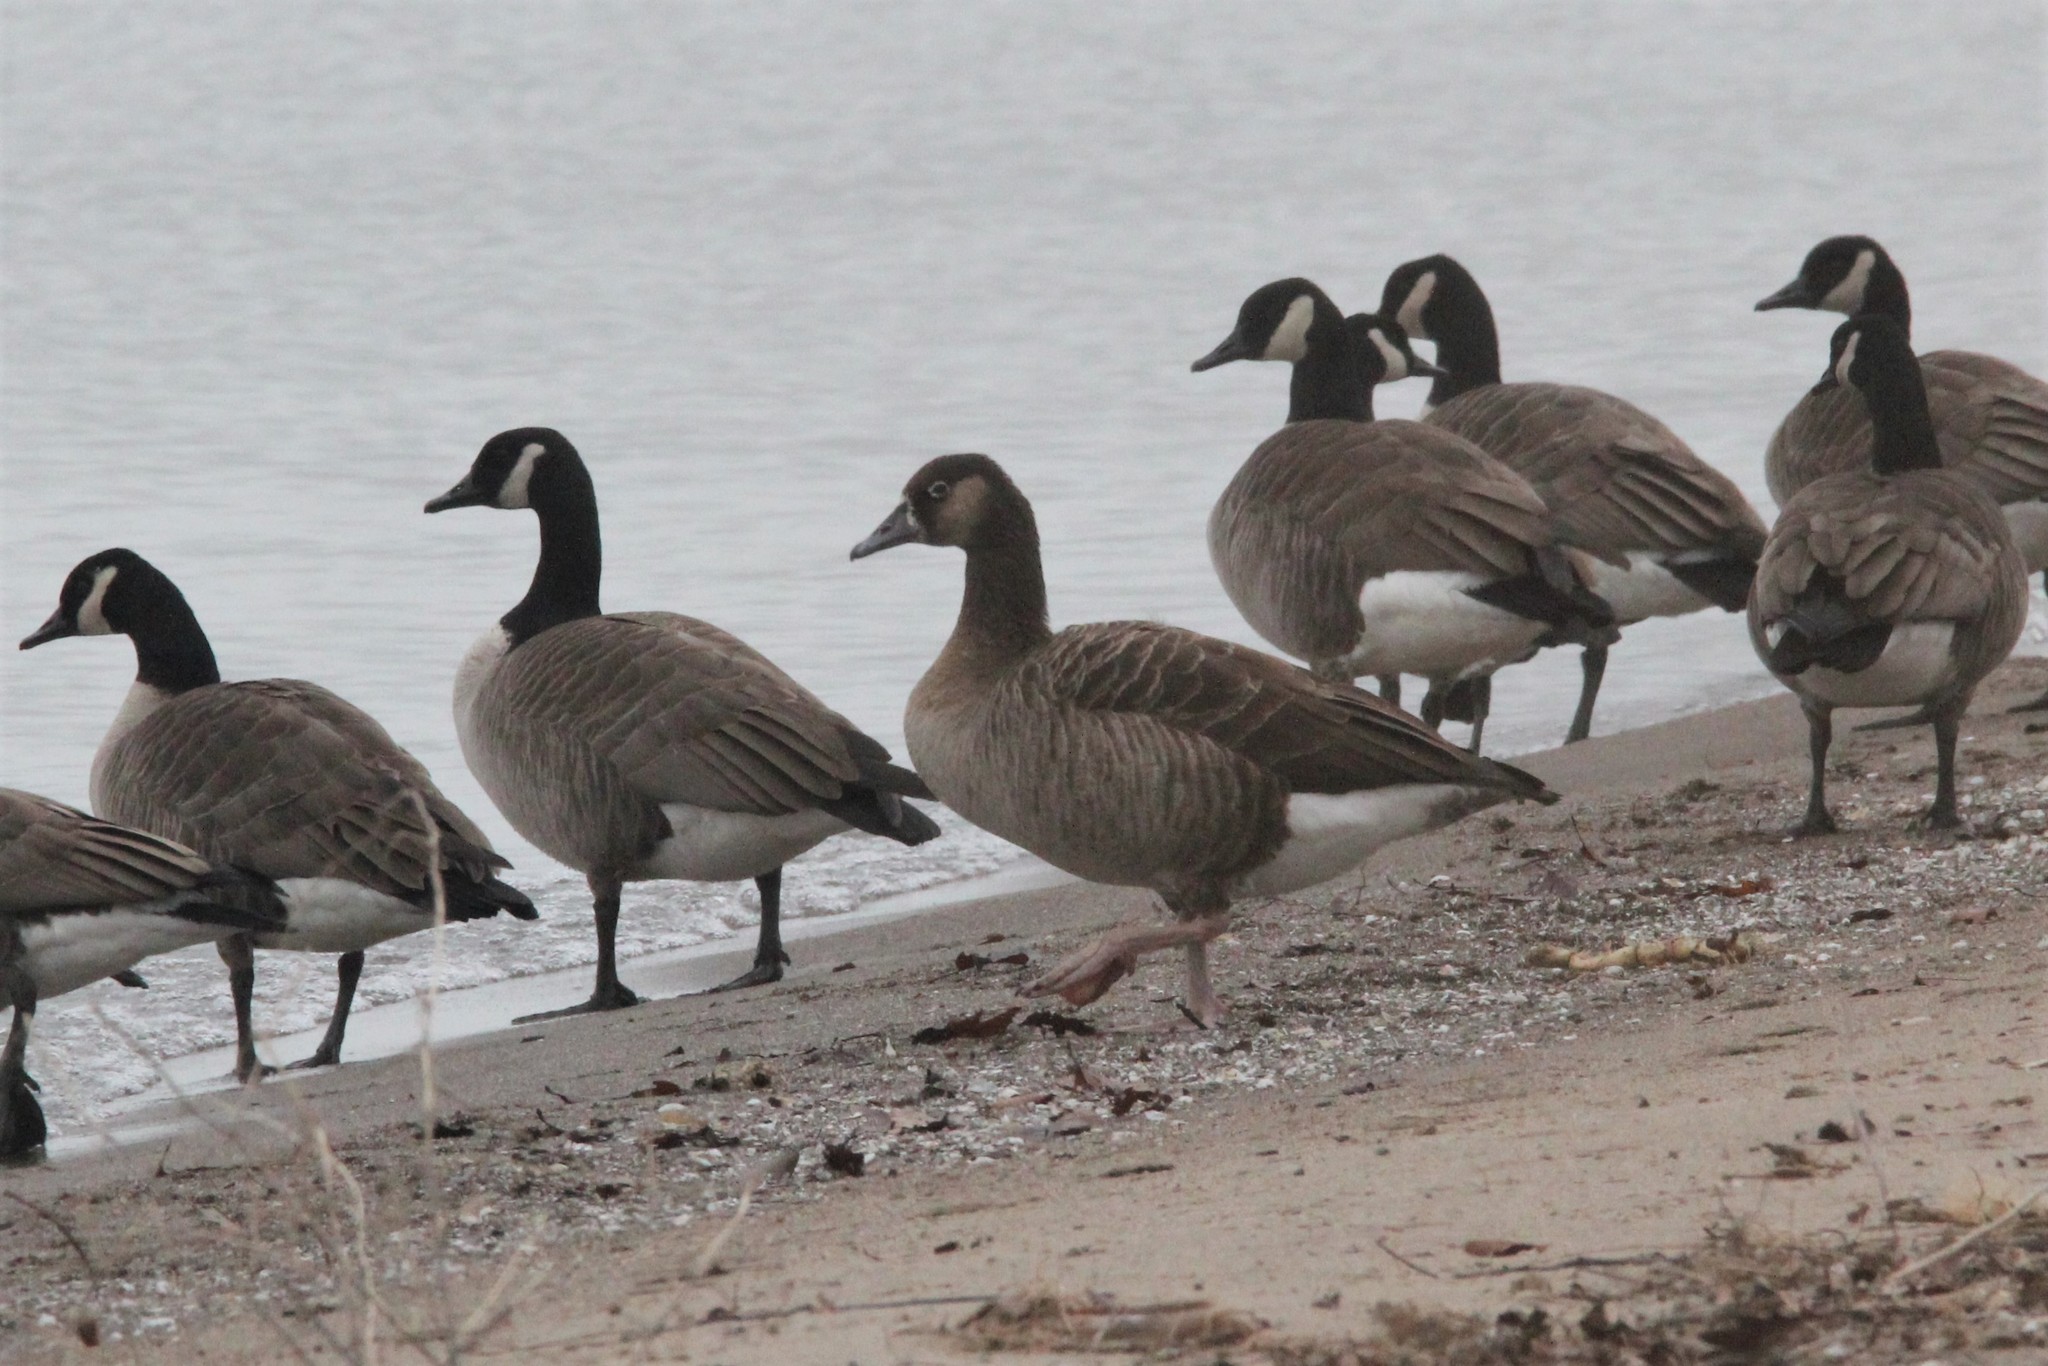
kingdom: Animalia
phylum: Chordata
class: Aves
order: Anseriformes
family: Anatidae
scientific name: Anatidae
